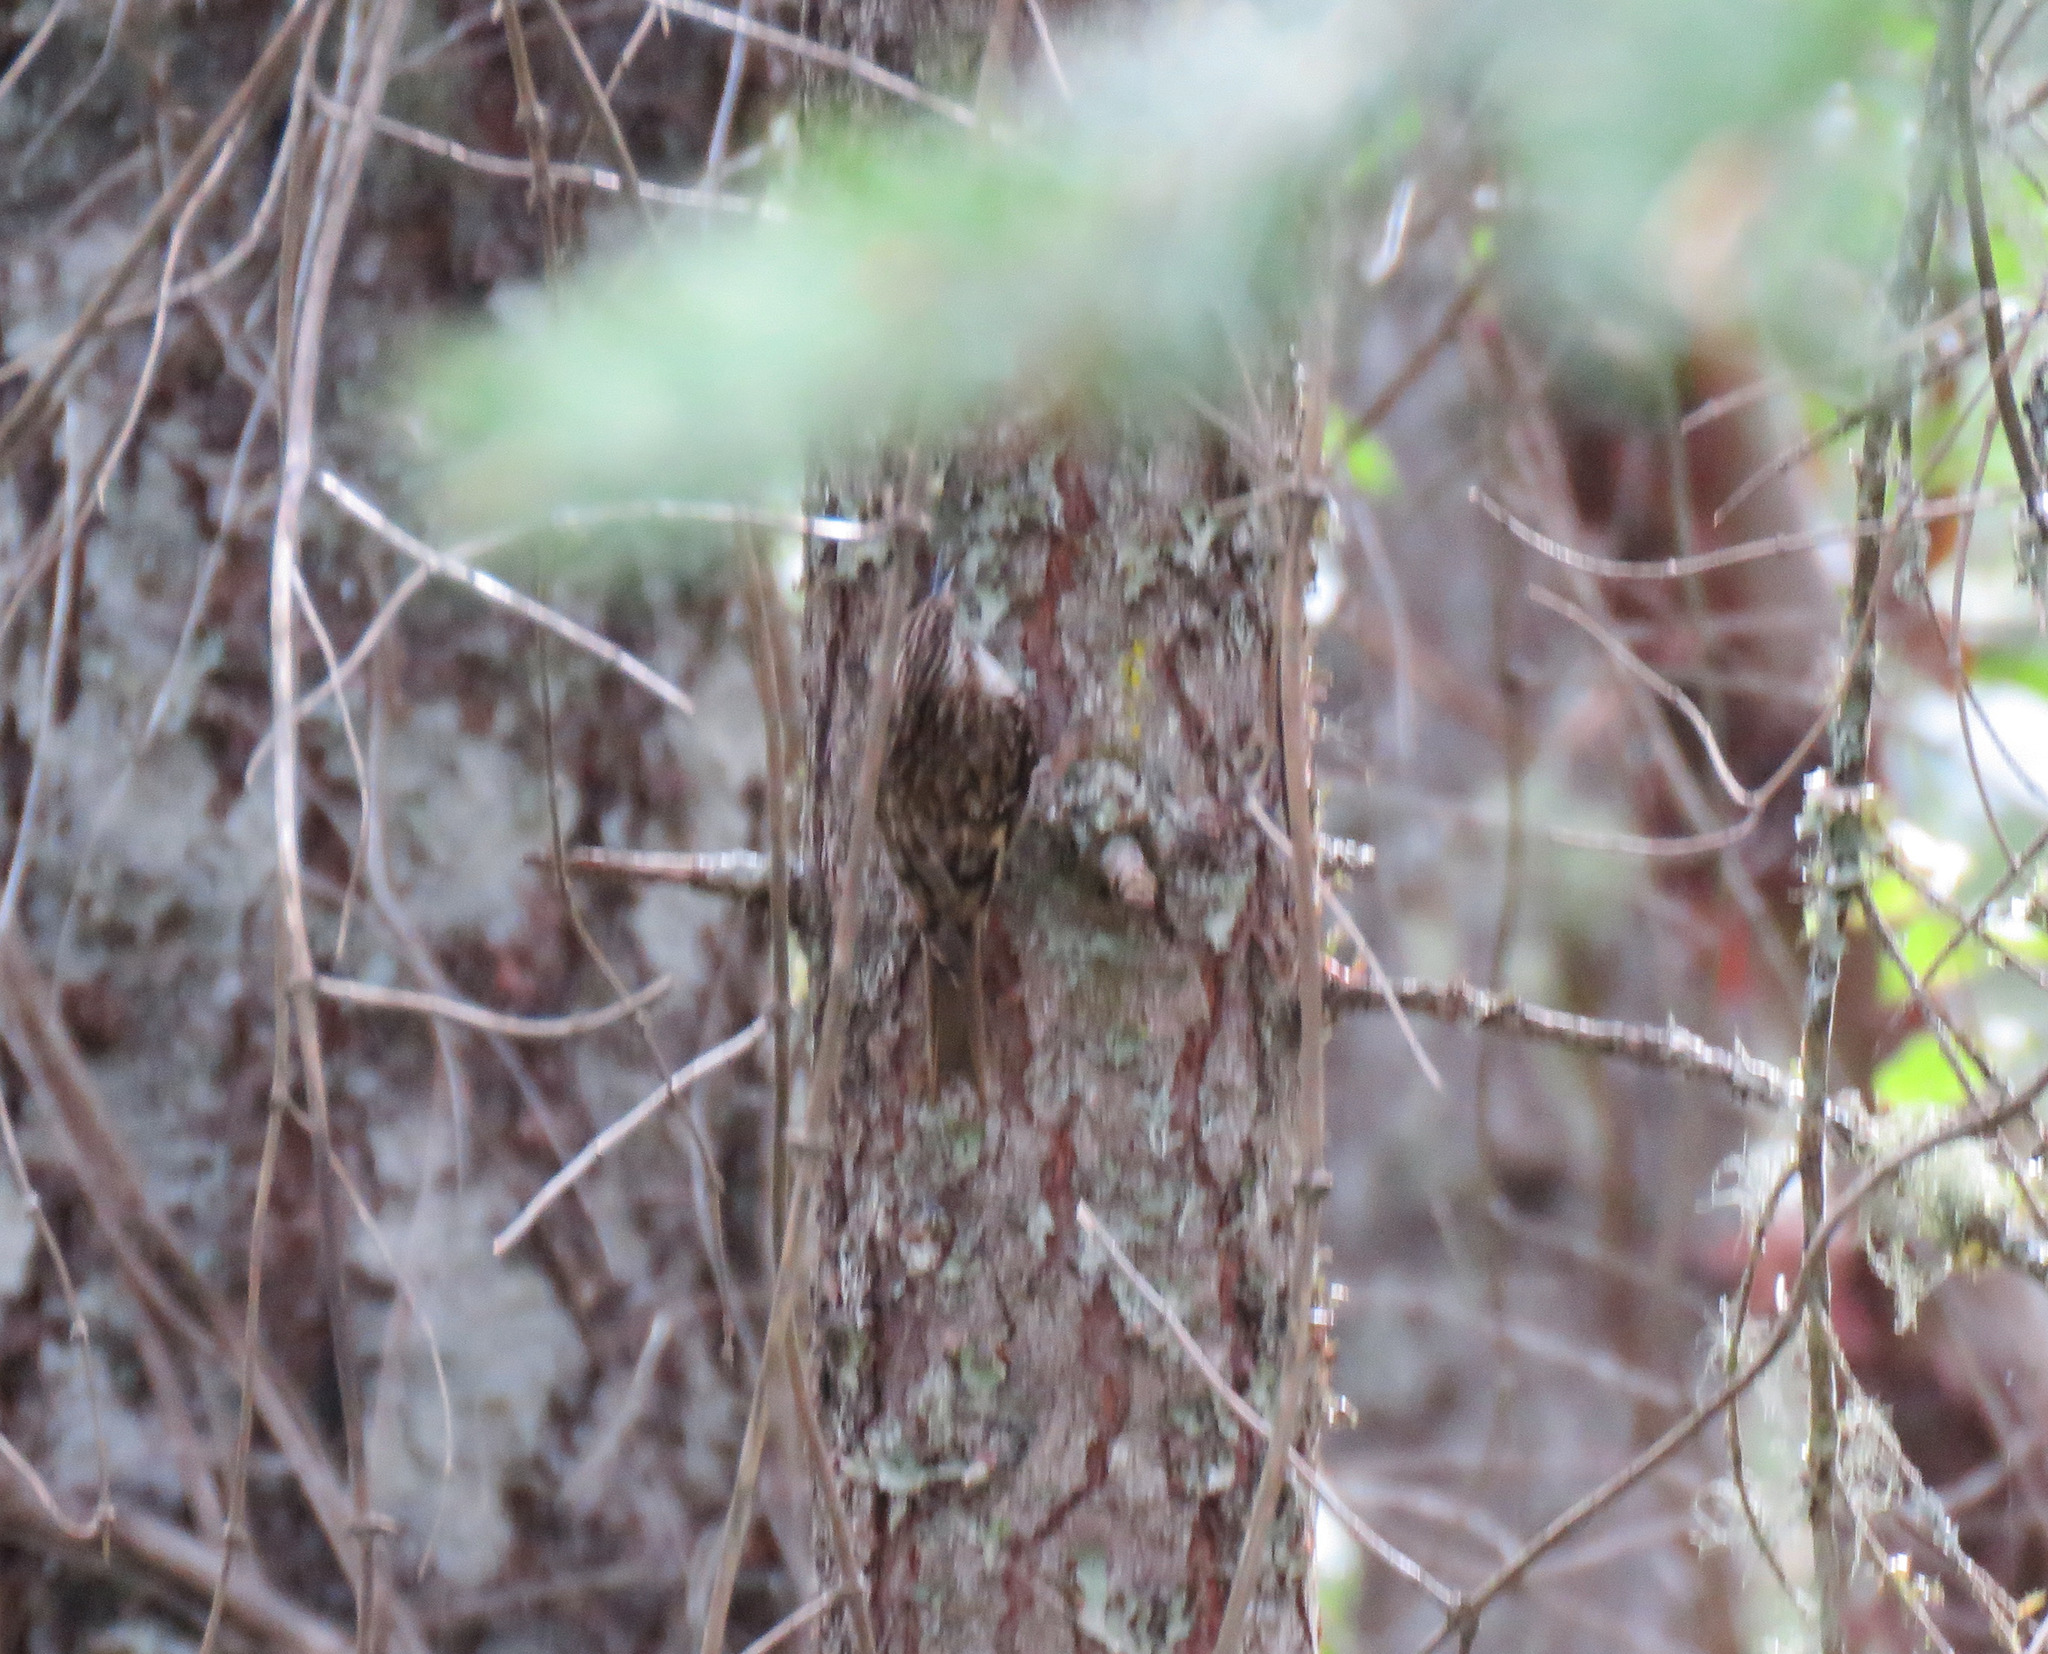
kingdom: Animalia
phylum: Chordata
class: Aves
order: Passeriformes
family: Certhiidae
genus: Certhia
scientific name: Certhia americana
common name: Brown creeper
